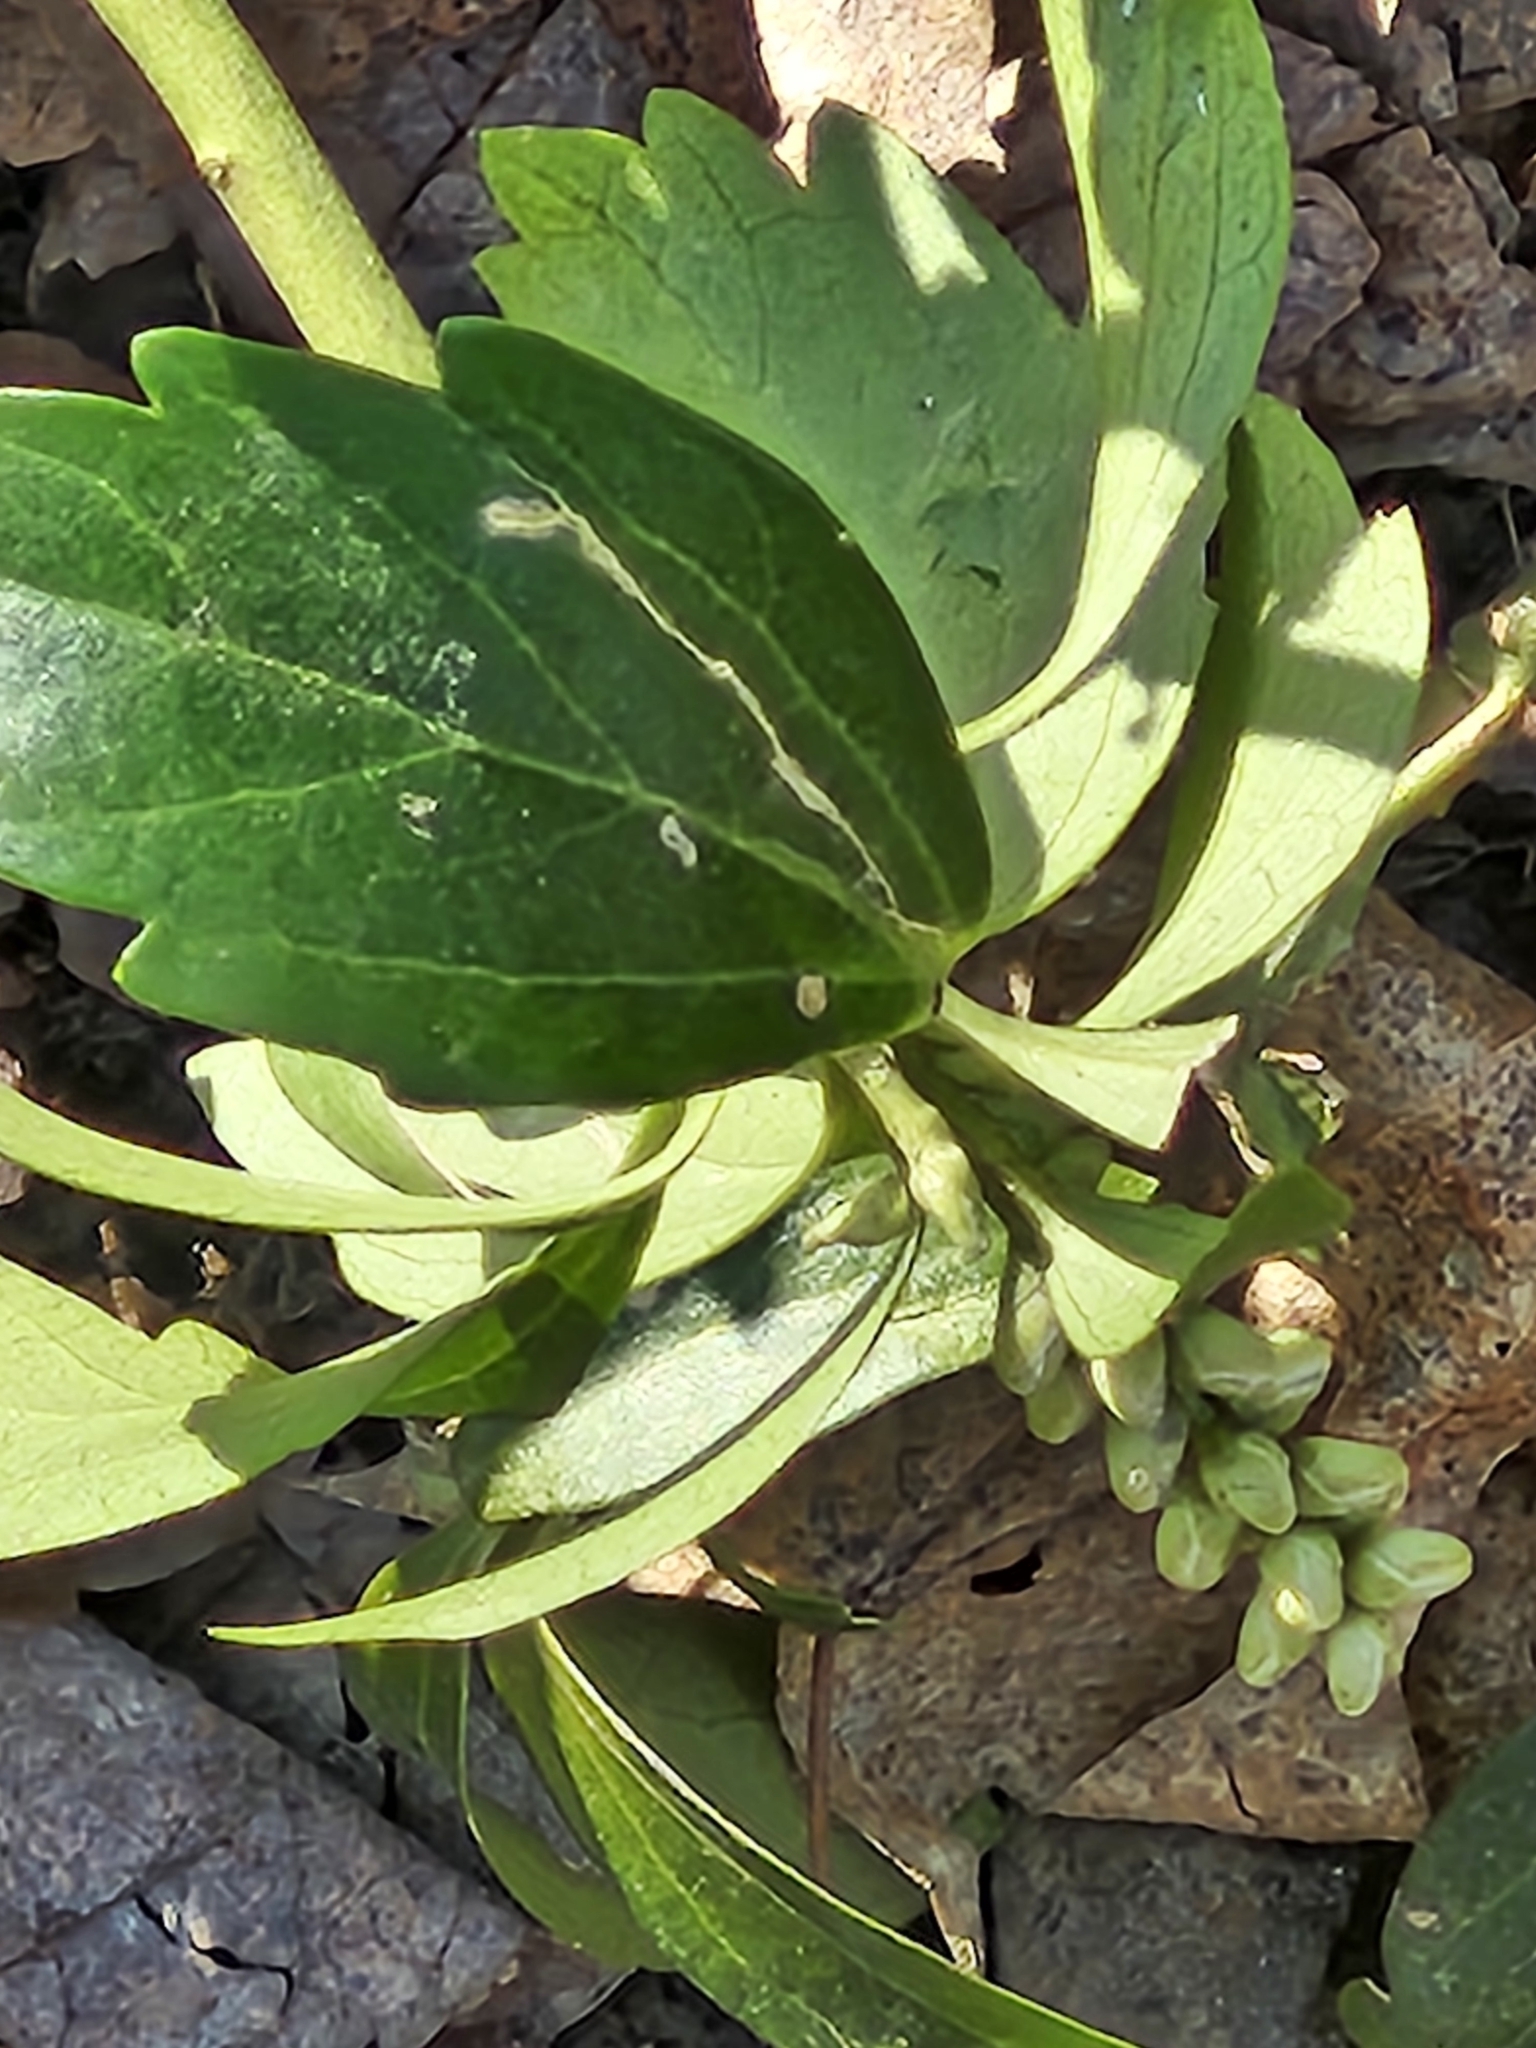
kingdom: Plantae
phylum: Tracheophyta
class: Magnoliopsida
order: Buxales
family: Buxaceae
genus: Pachysandra
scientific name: Pachysandra terminalis
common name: Japanese pachysandra
